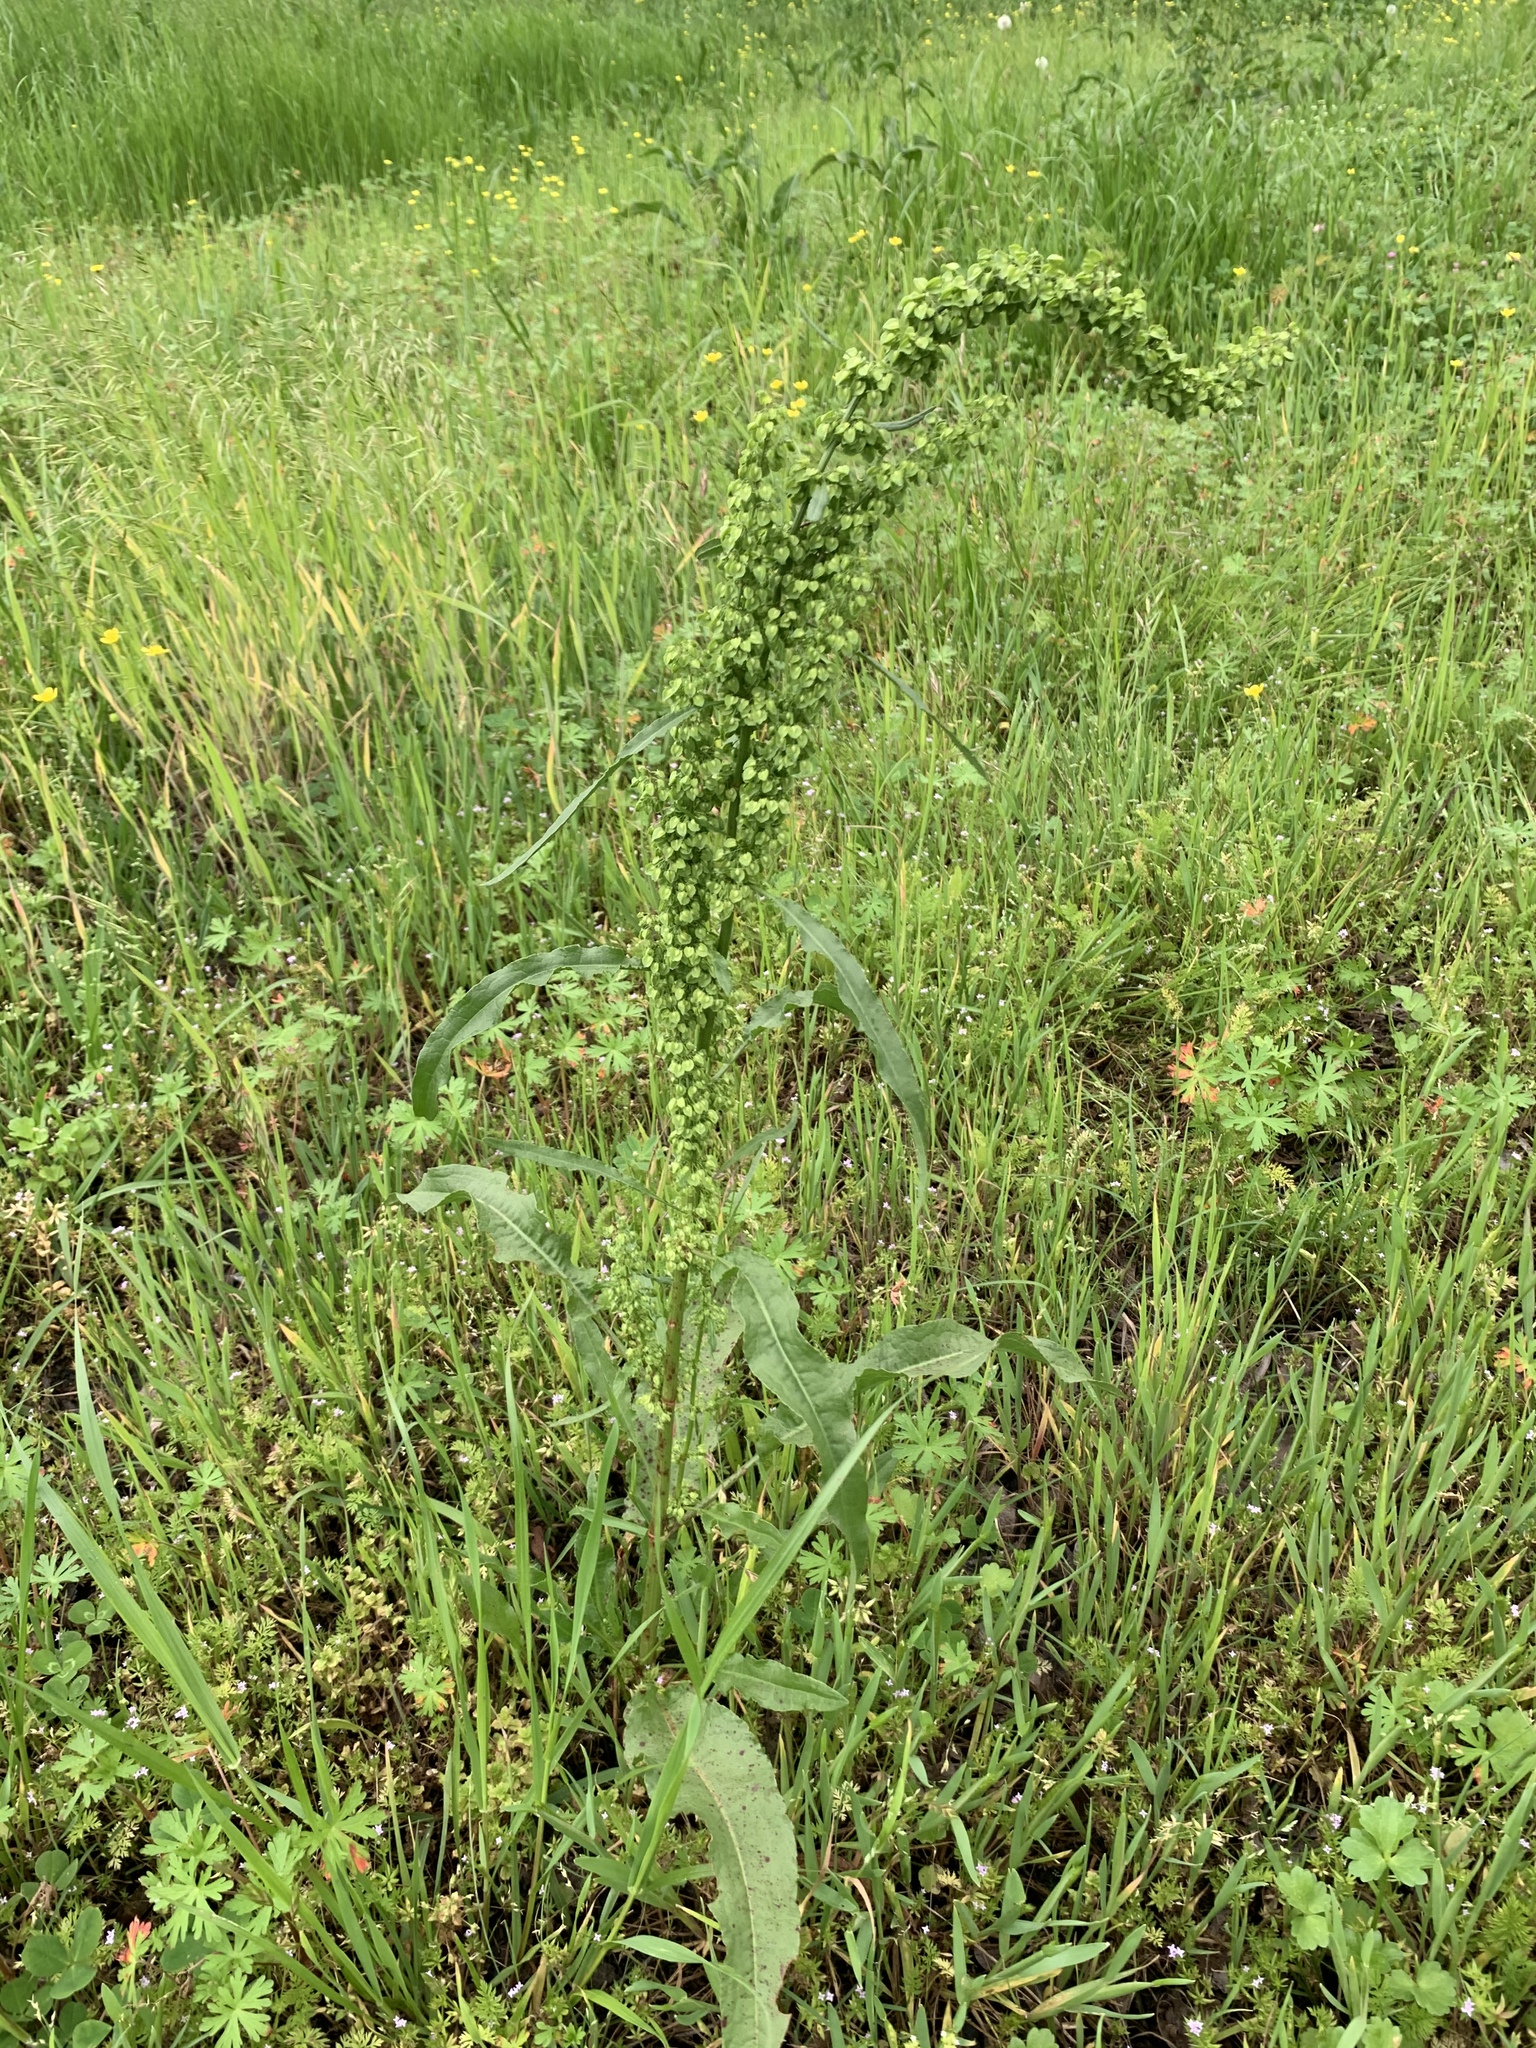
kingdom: Plantae
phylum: Tracheophyta
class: Magnoliopsida
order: Caryophyllales
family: Polygonaceae
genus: Rumex
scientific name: Rumex crispus
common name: Curled dock
